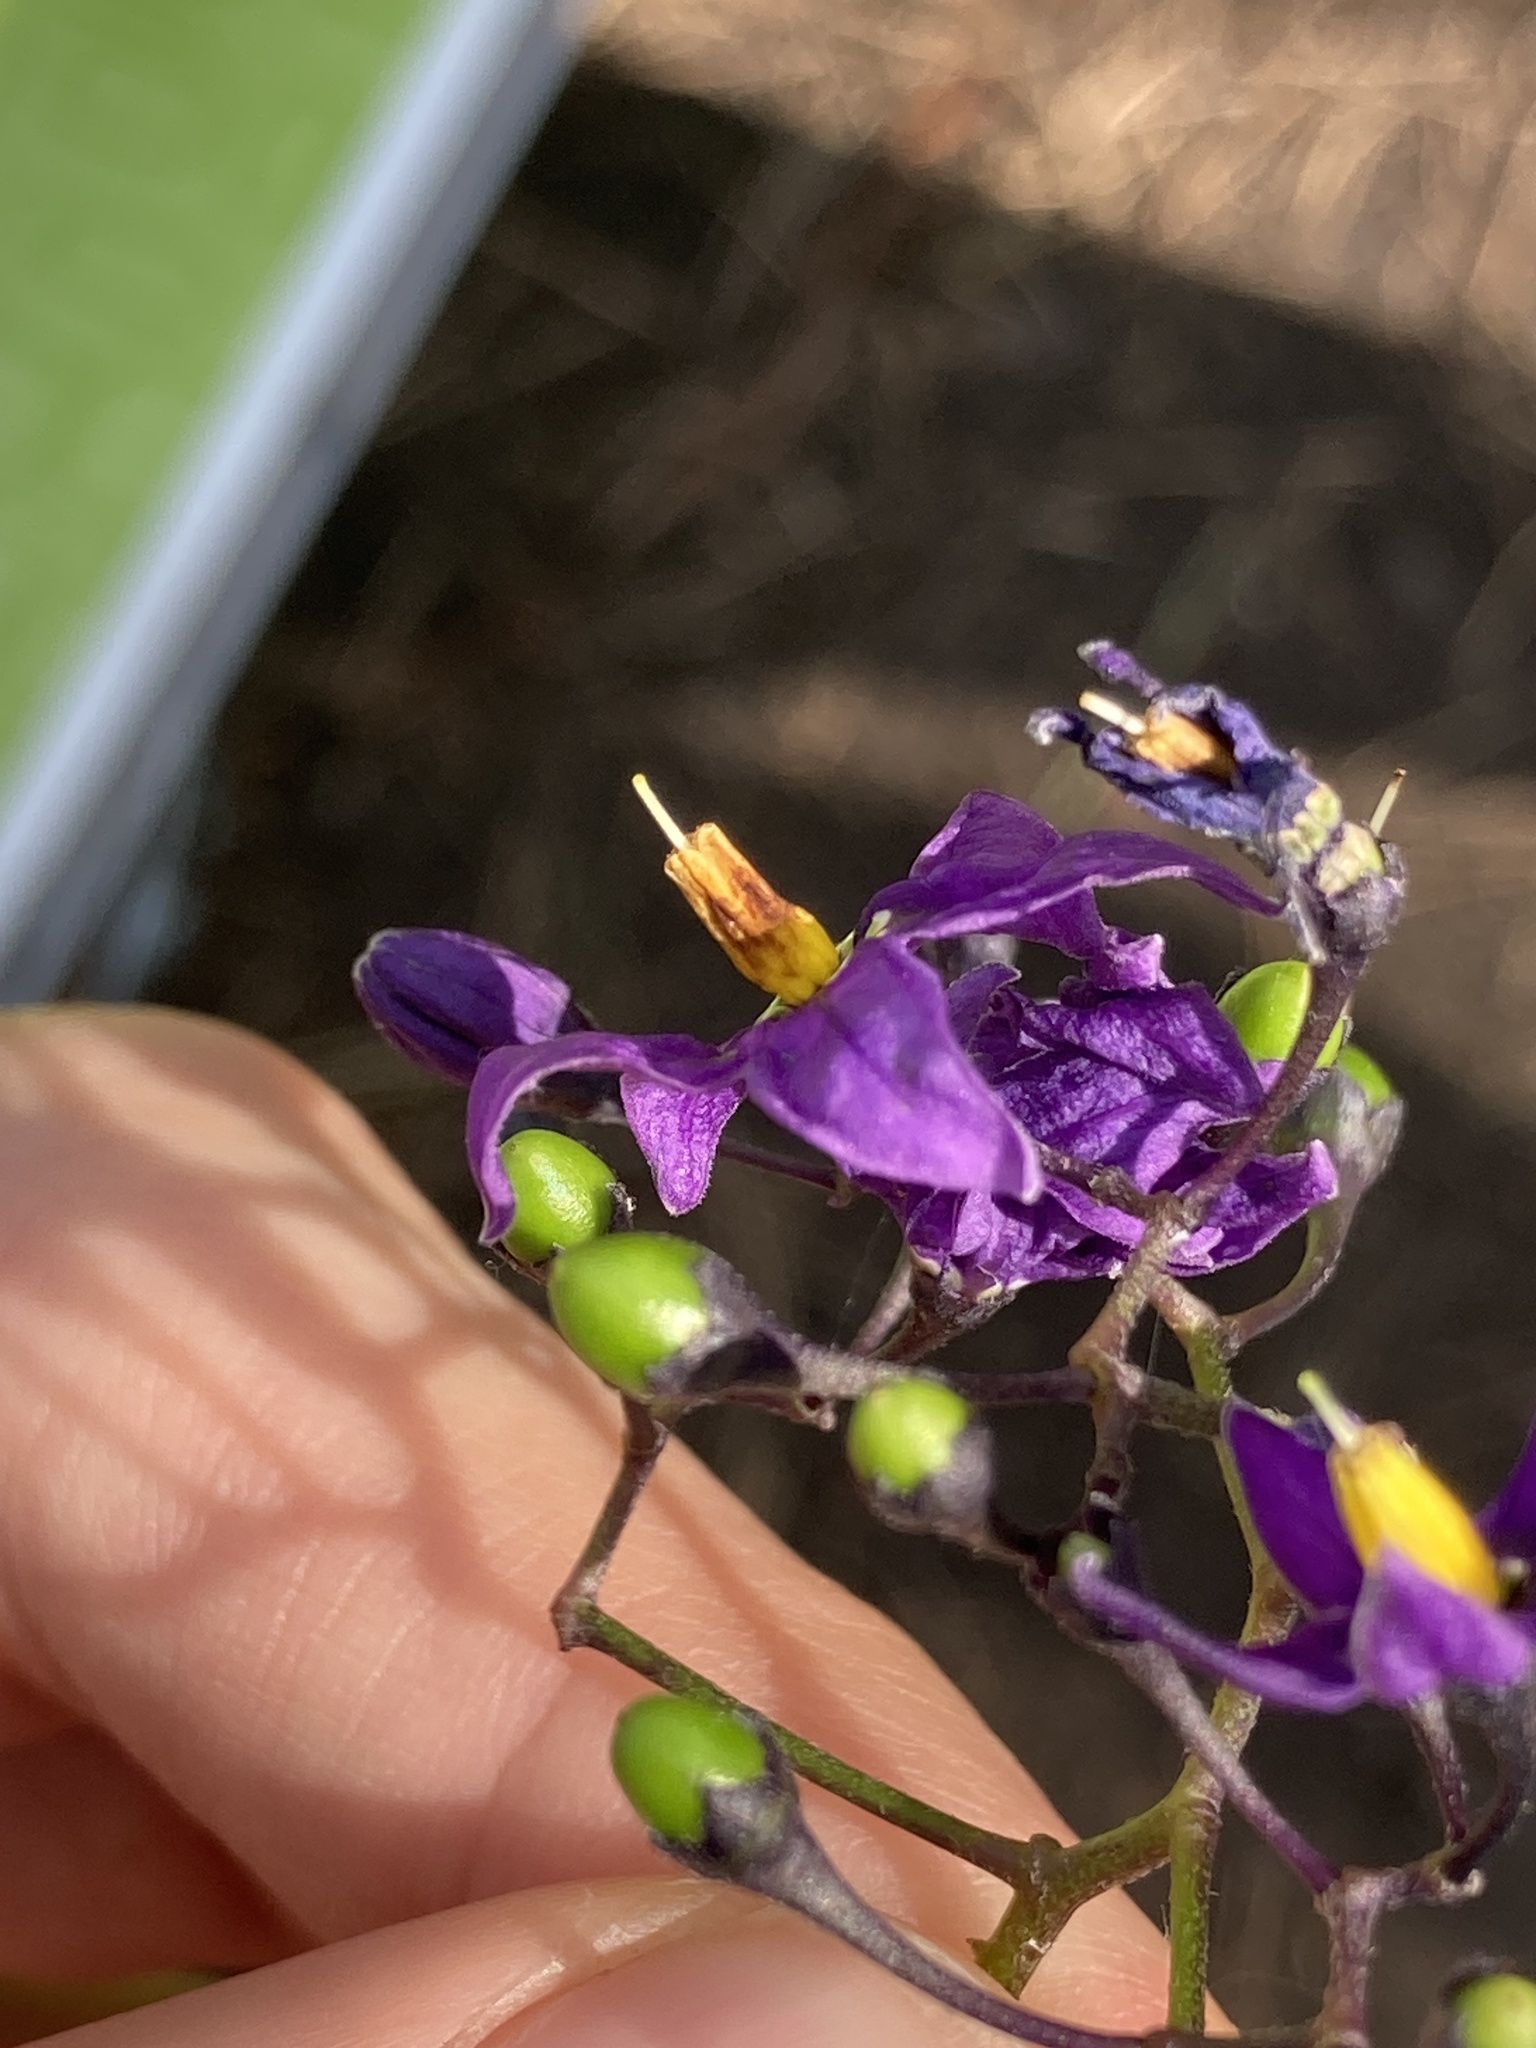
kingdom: Plantae
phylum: Tracheophyta
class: Magnoliopsida
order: Solanales
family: Solanaceae
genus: Solanum
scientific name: Solanum dulcamara
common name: Climbing nightshade
